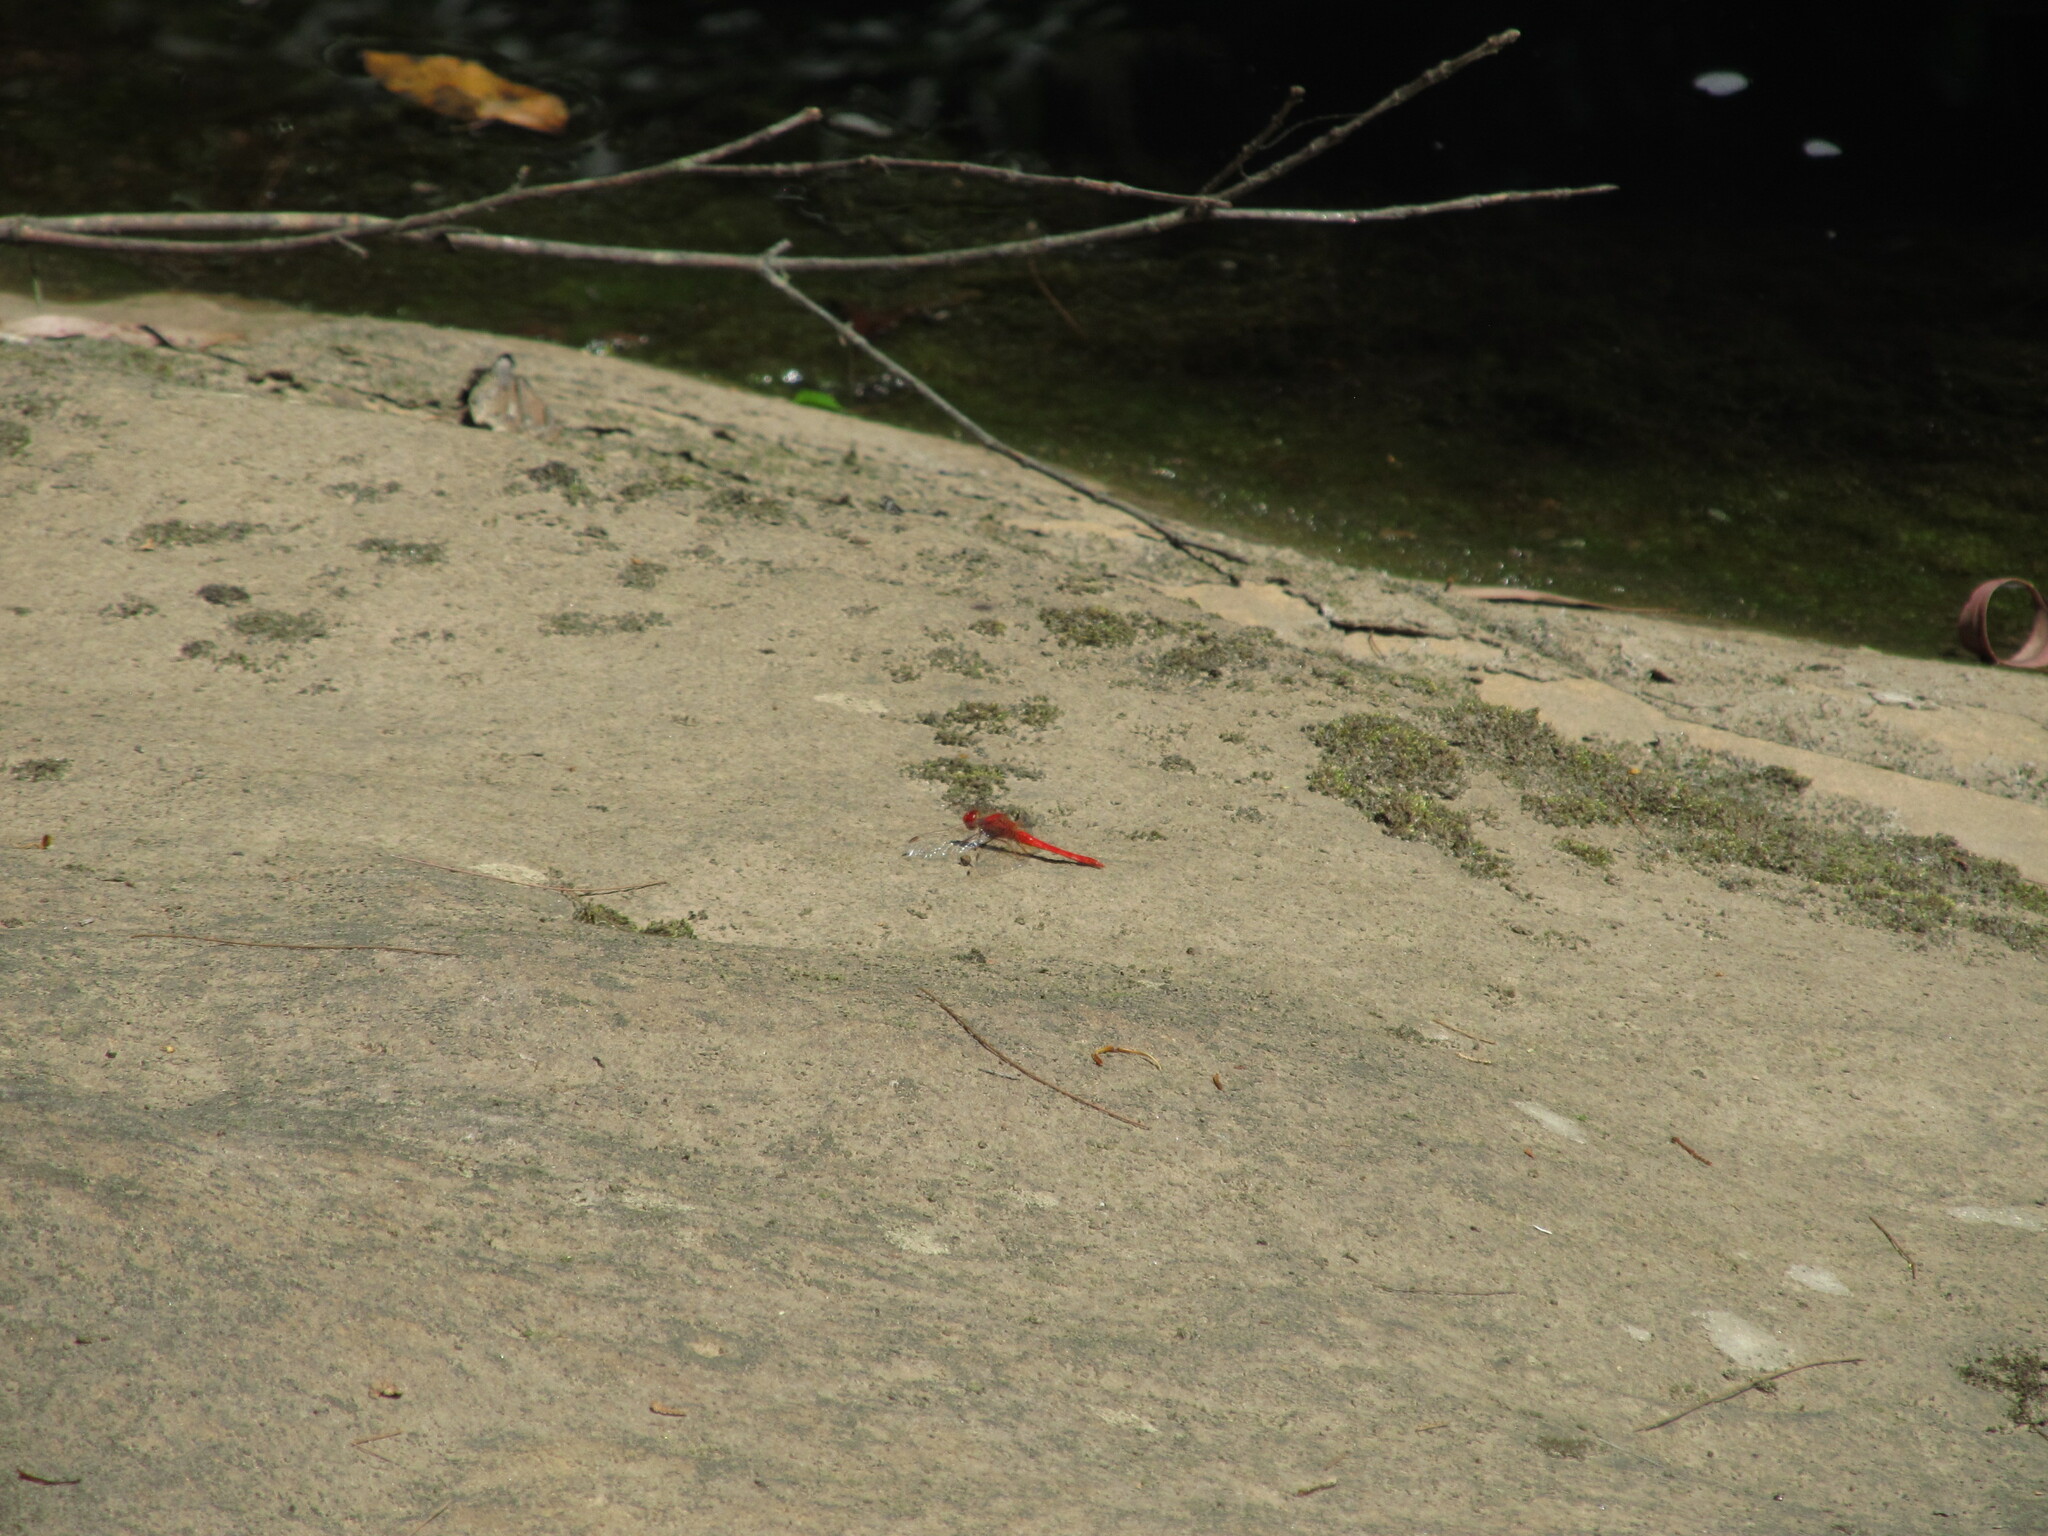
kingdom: Animalia
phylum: Arthropoda
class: Insecta
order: Odonata
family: Libellulidae
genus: Diplacodes
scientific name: Diplacodes haematodes
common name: Scarlet percher
